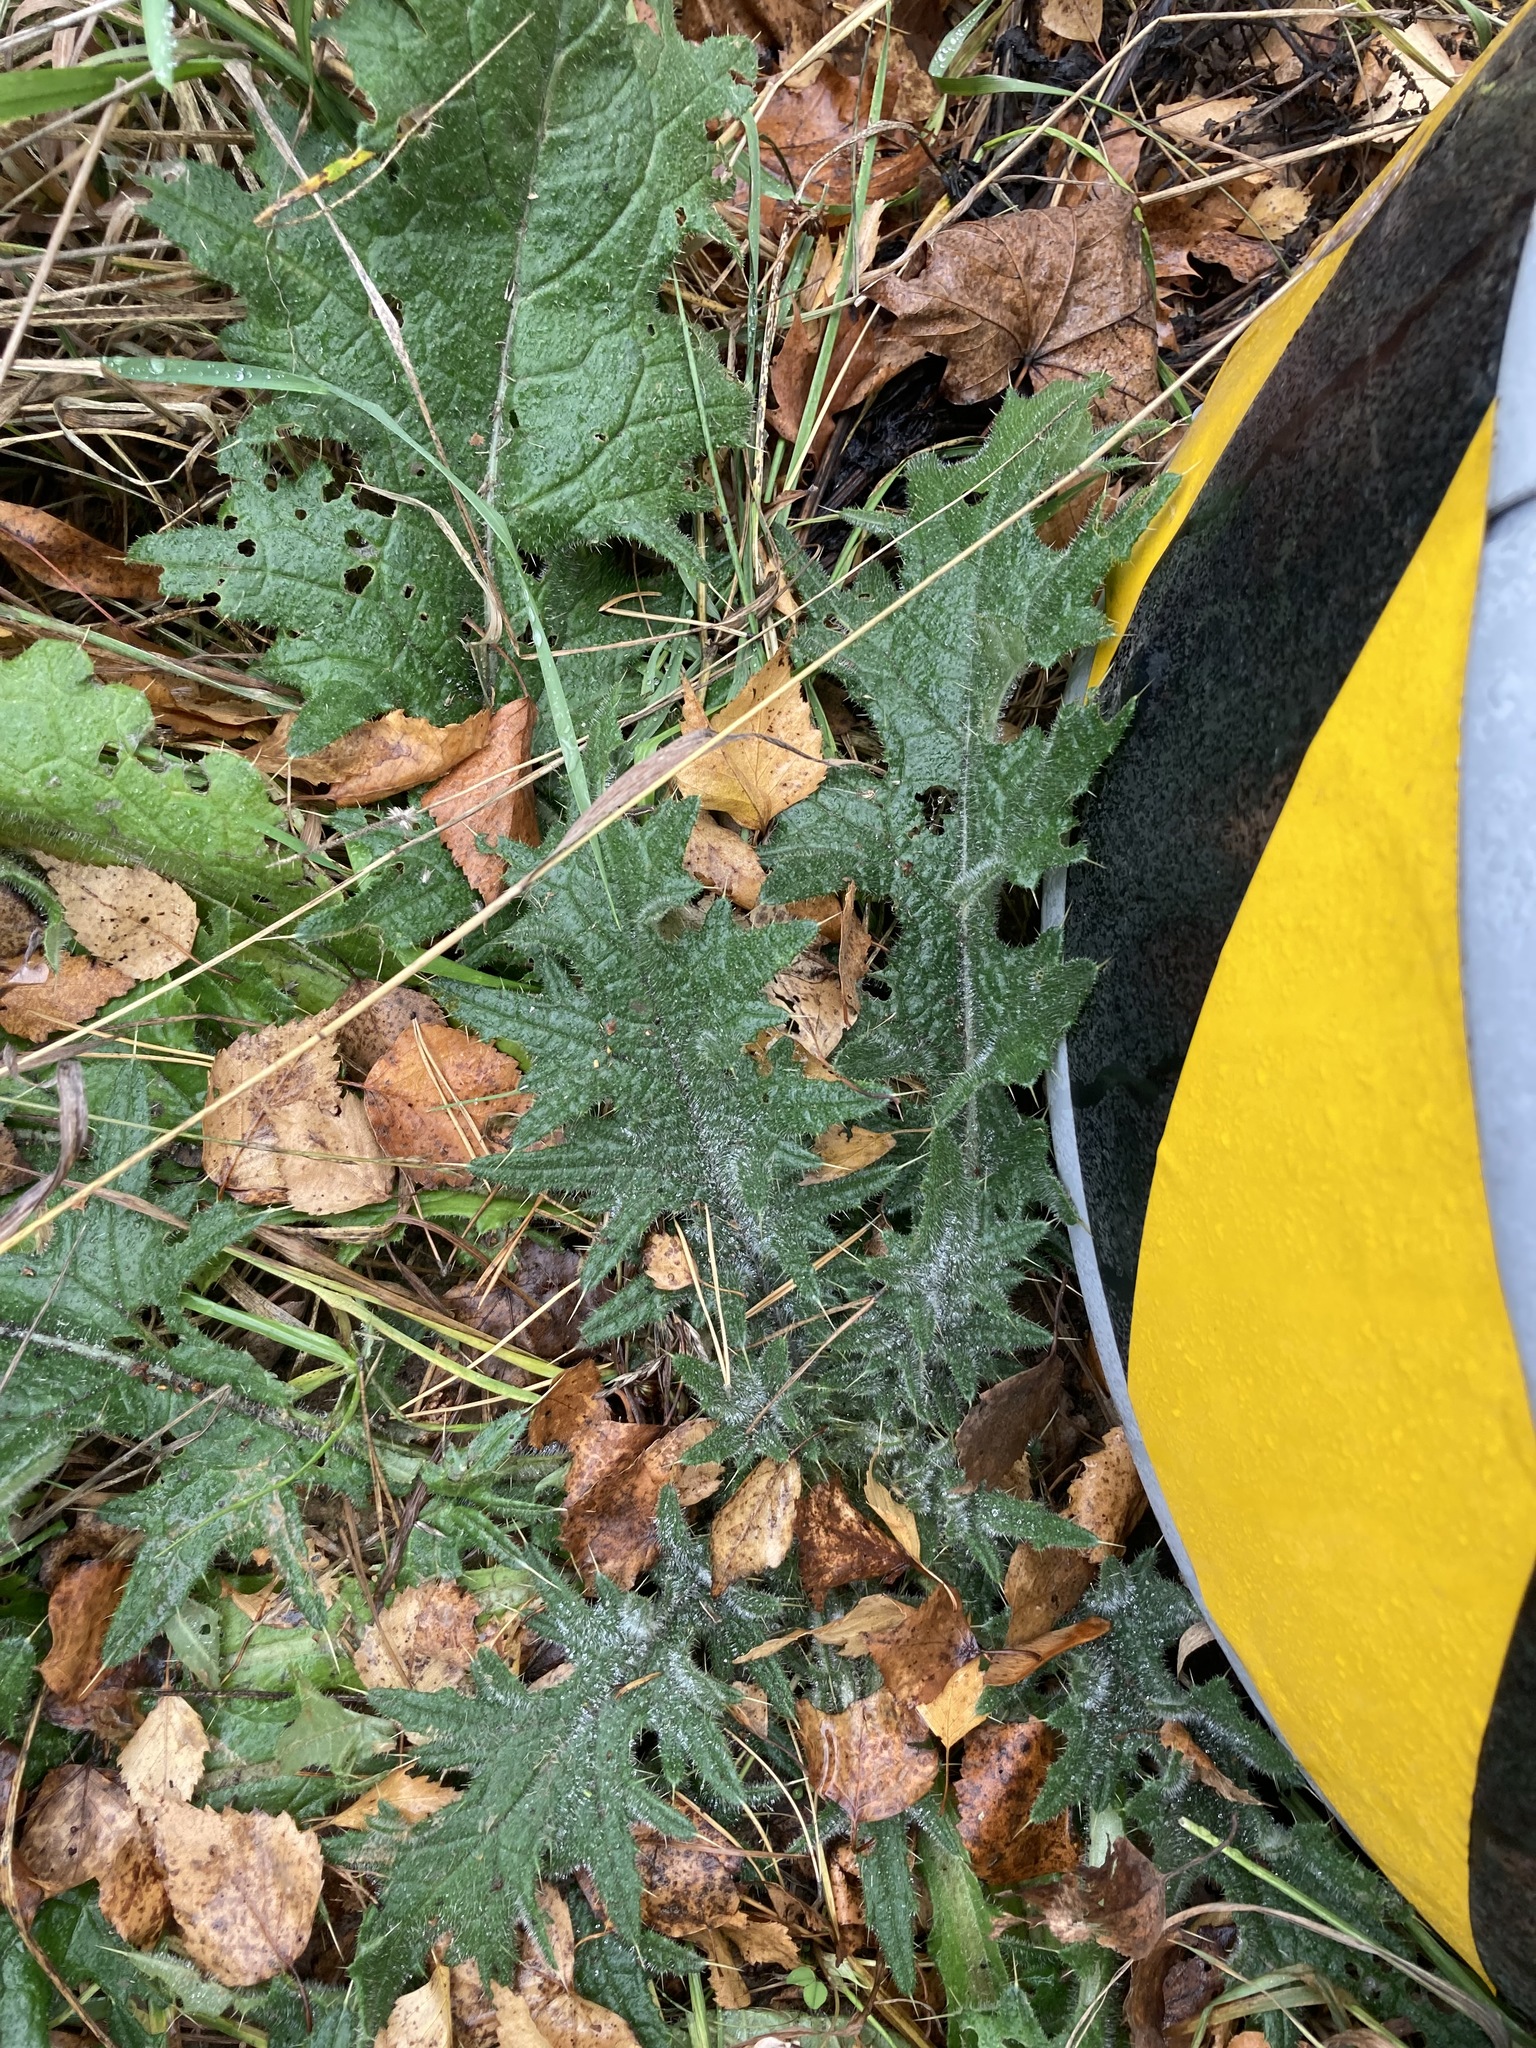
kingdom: Plantae
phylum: Tracheophyta
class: Magnoliopsida
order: Asterales
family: Asteraceae
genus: Cirsium
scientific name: Cirsium vulgare
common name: Bull thistle
